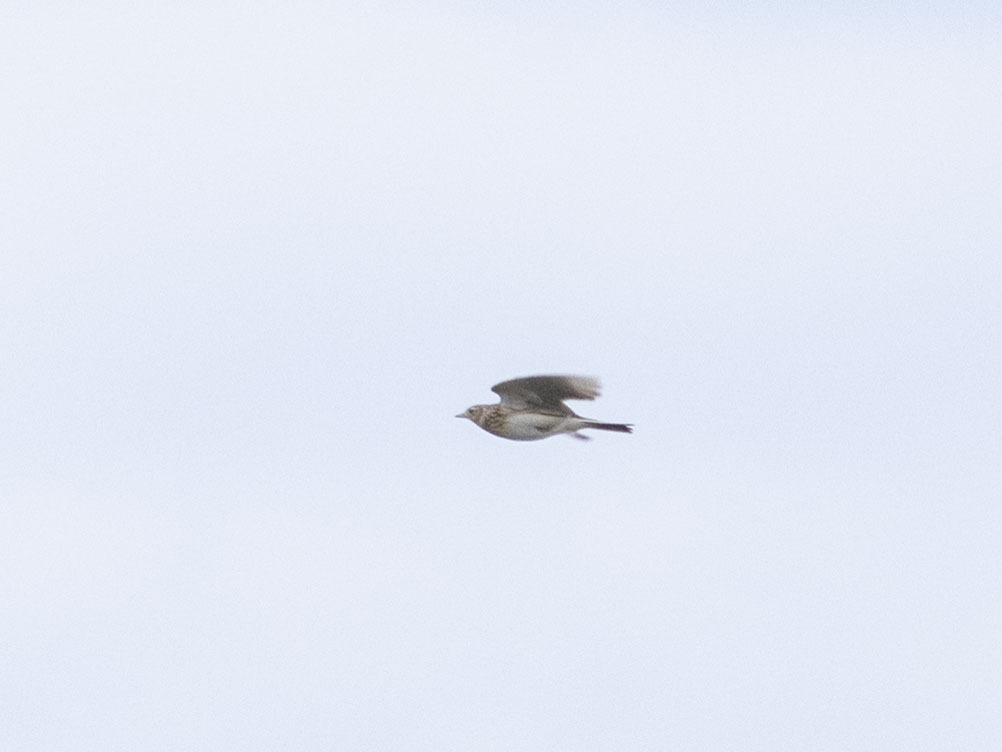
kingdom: Animalia
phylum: Chordata
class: Aves
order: Passeriformes
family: Alaudidae
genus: Alauda
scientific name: Alauda arvensis
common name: Eurasian skylark
